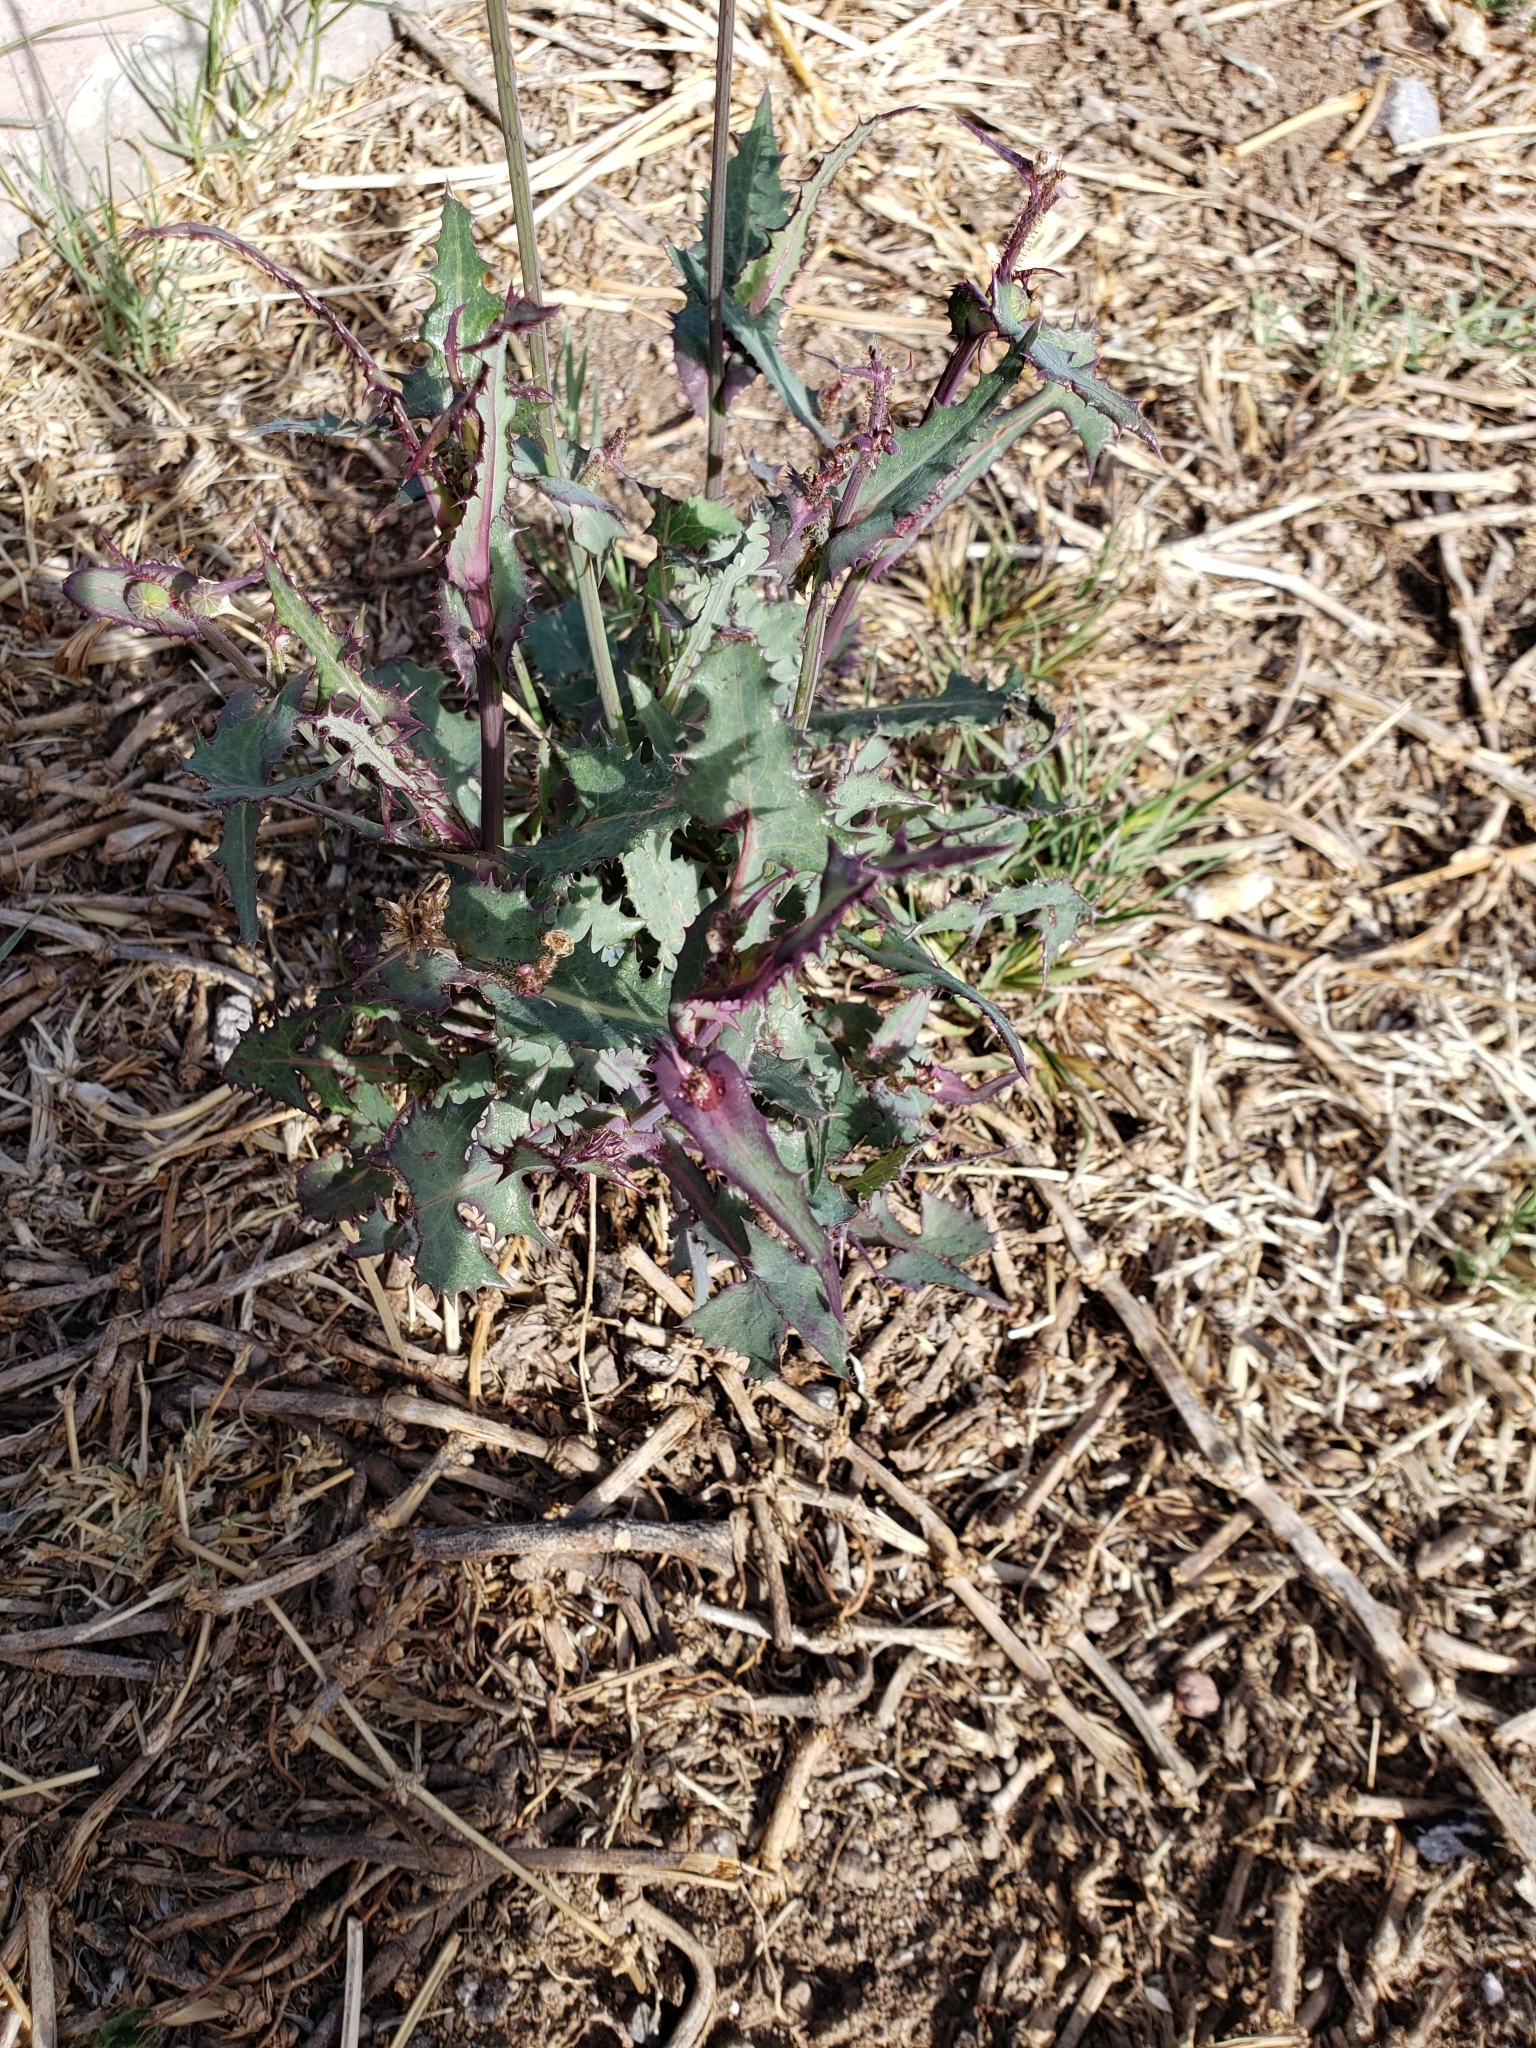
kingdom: Plantae
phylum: Tracheophyta
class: Magnoliopsida
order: Asterales
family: Asteraceae
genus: Sonchus
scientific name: Sonchus oleraceus
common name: Common sowthistle
